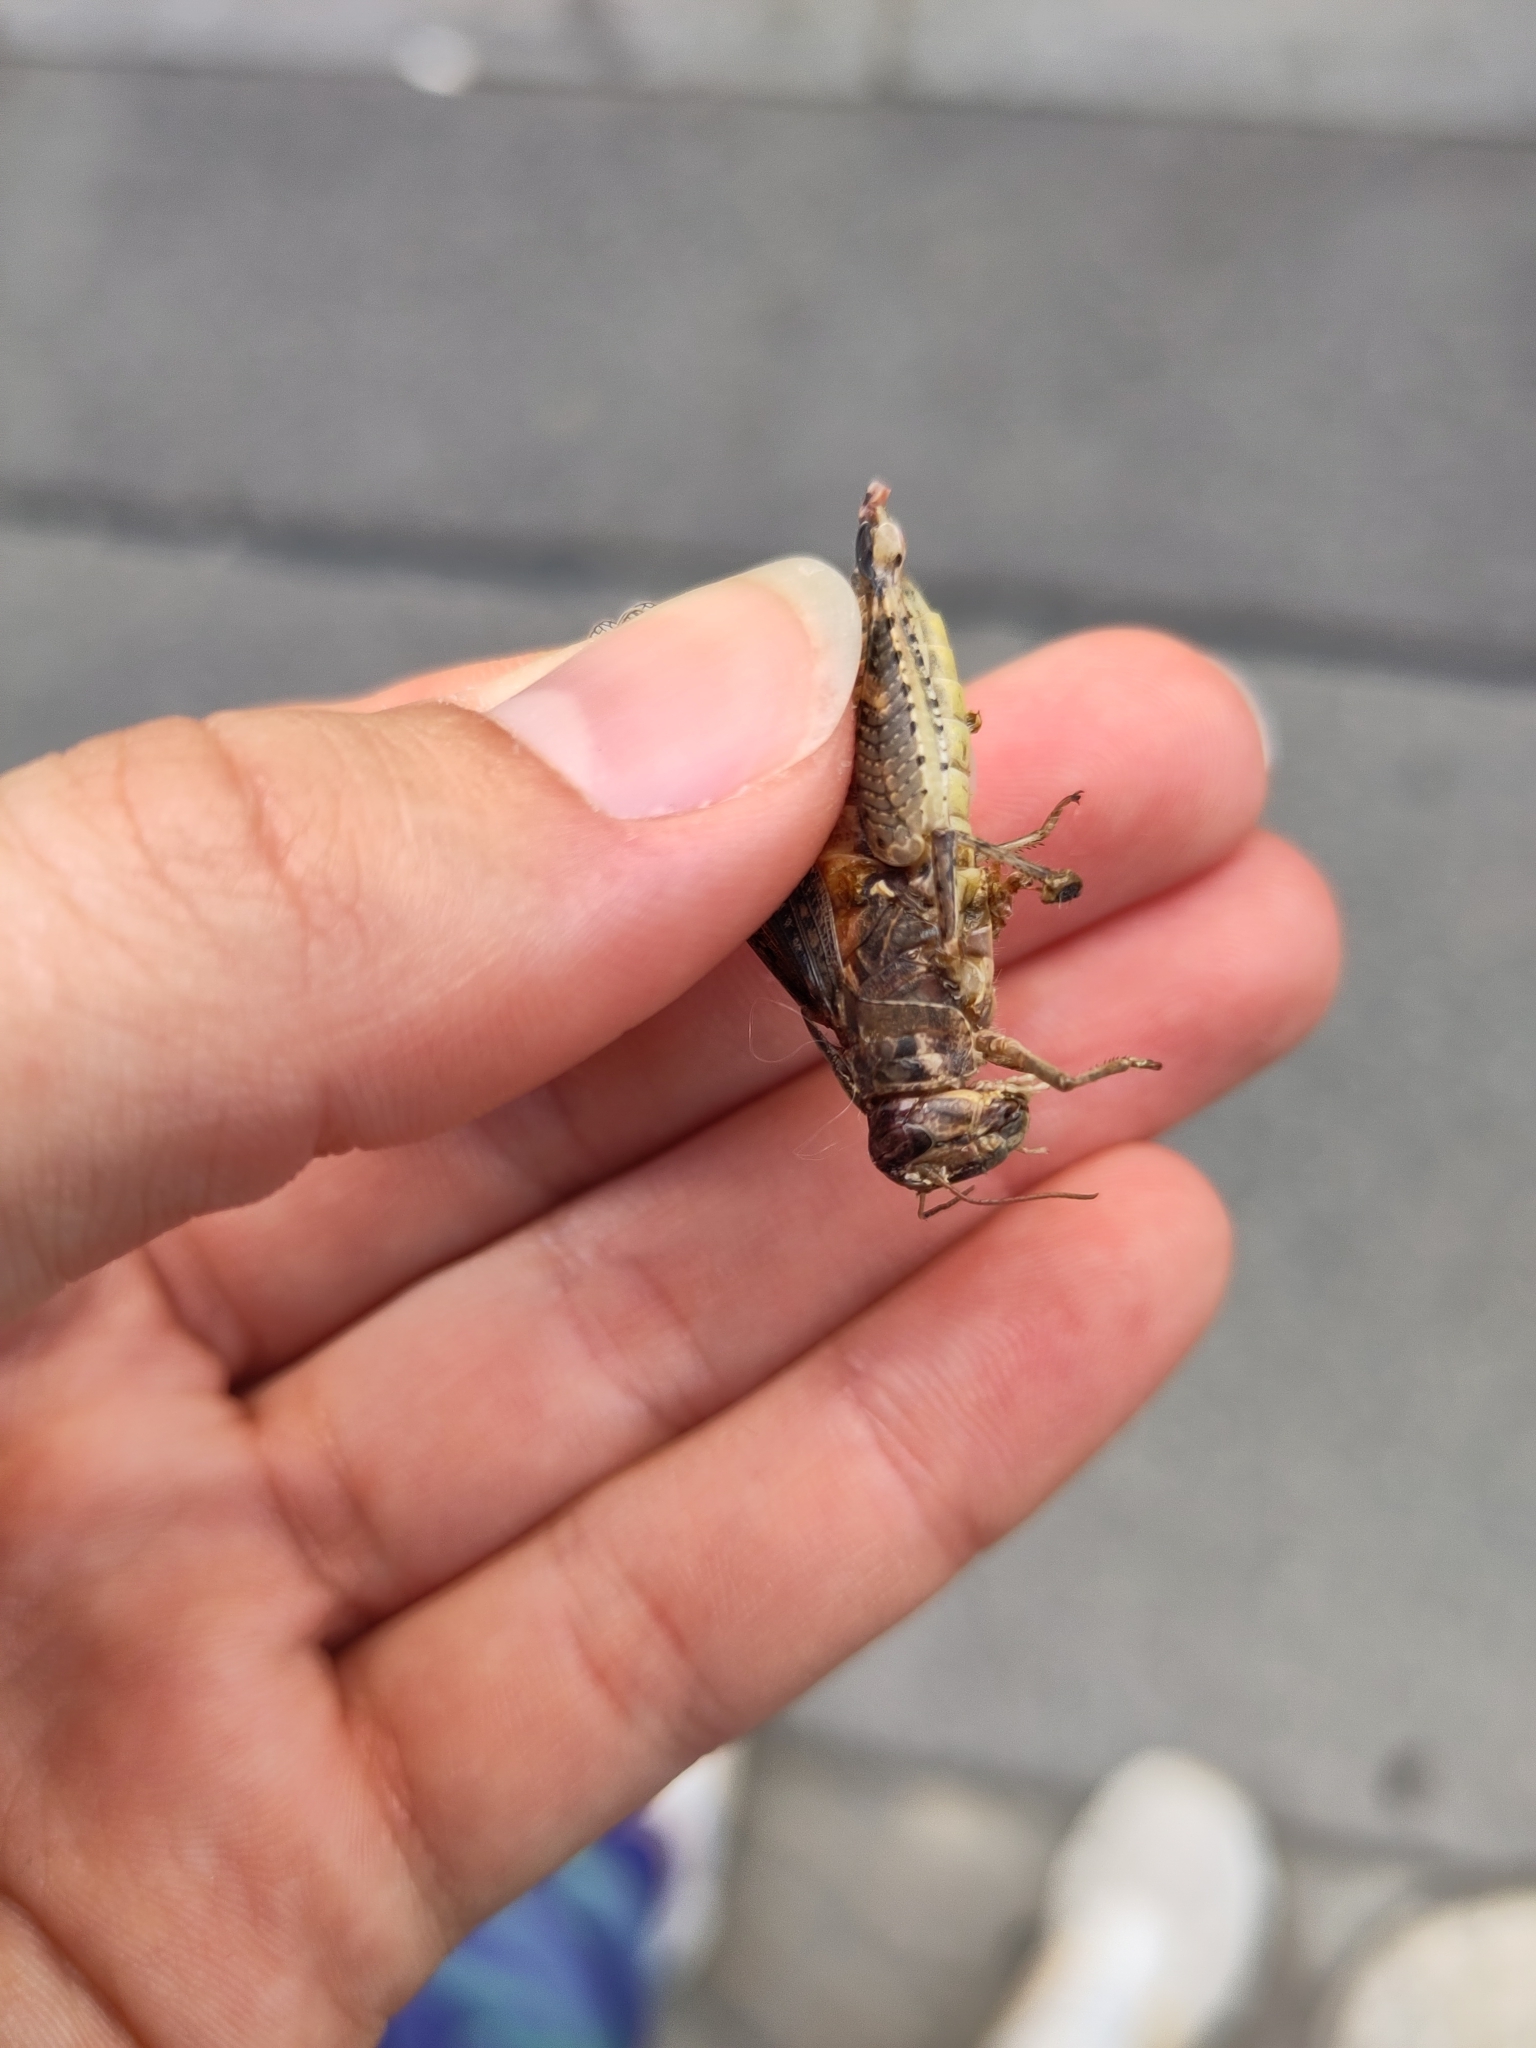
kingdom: Animalia
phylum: Arthropoda
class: Insecta
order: Orthoptera
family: Acrididae
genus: Calliptamus
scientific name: Calliptamus italicus
